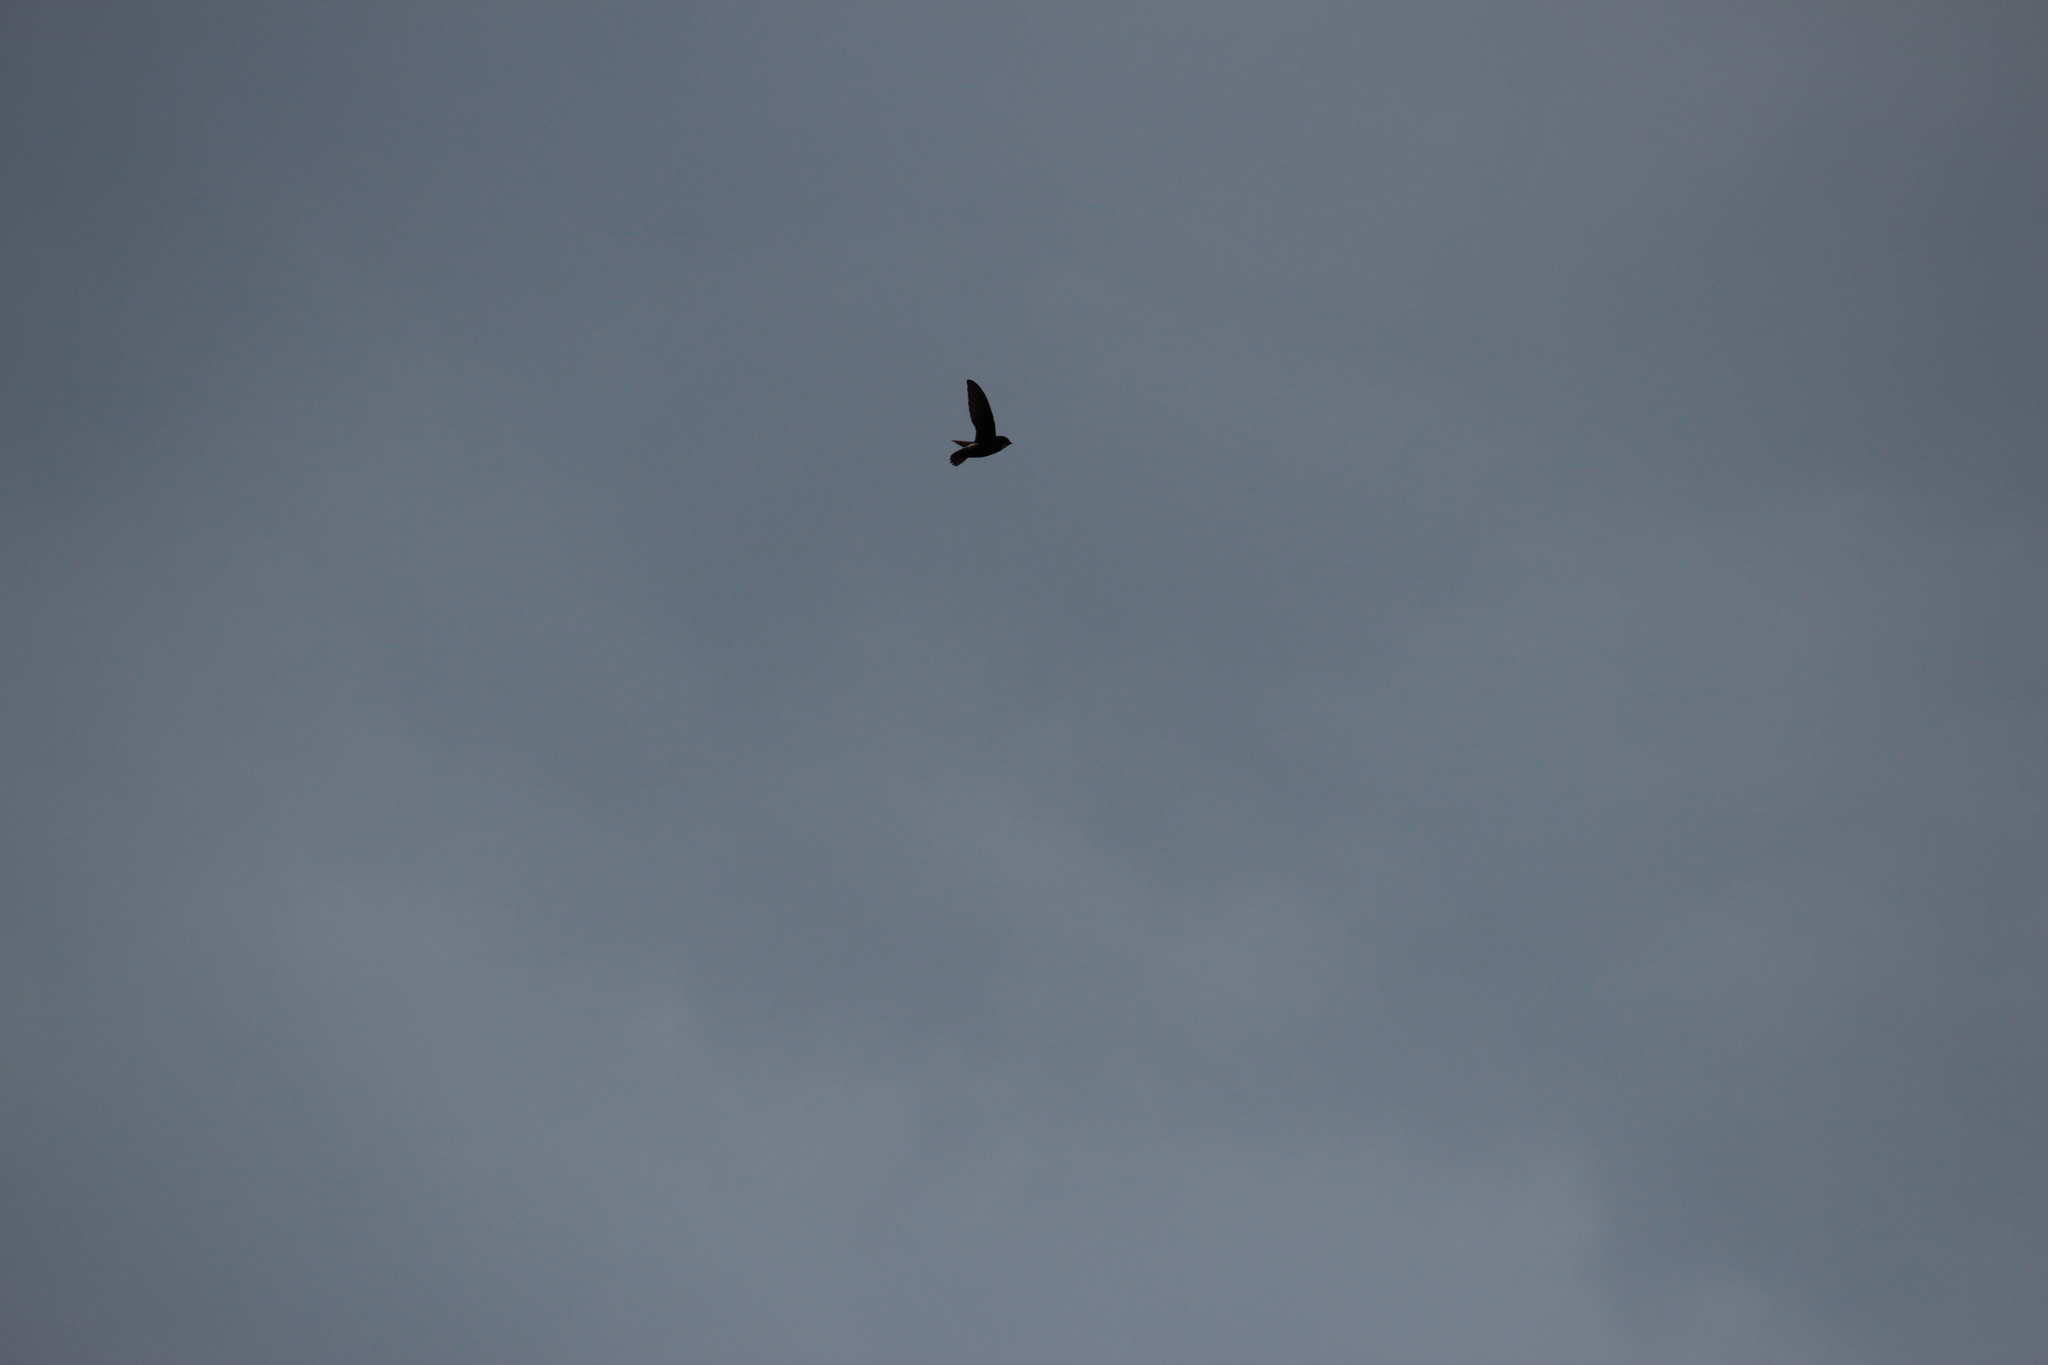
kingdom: Animalia
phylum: Chordata
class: Aves
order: Apodiformes
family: Apodidae
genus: Apus
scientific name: Apus affinis
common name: Little swift
